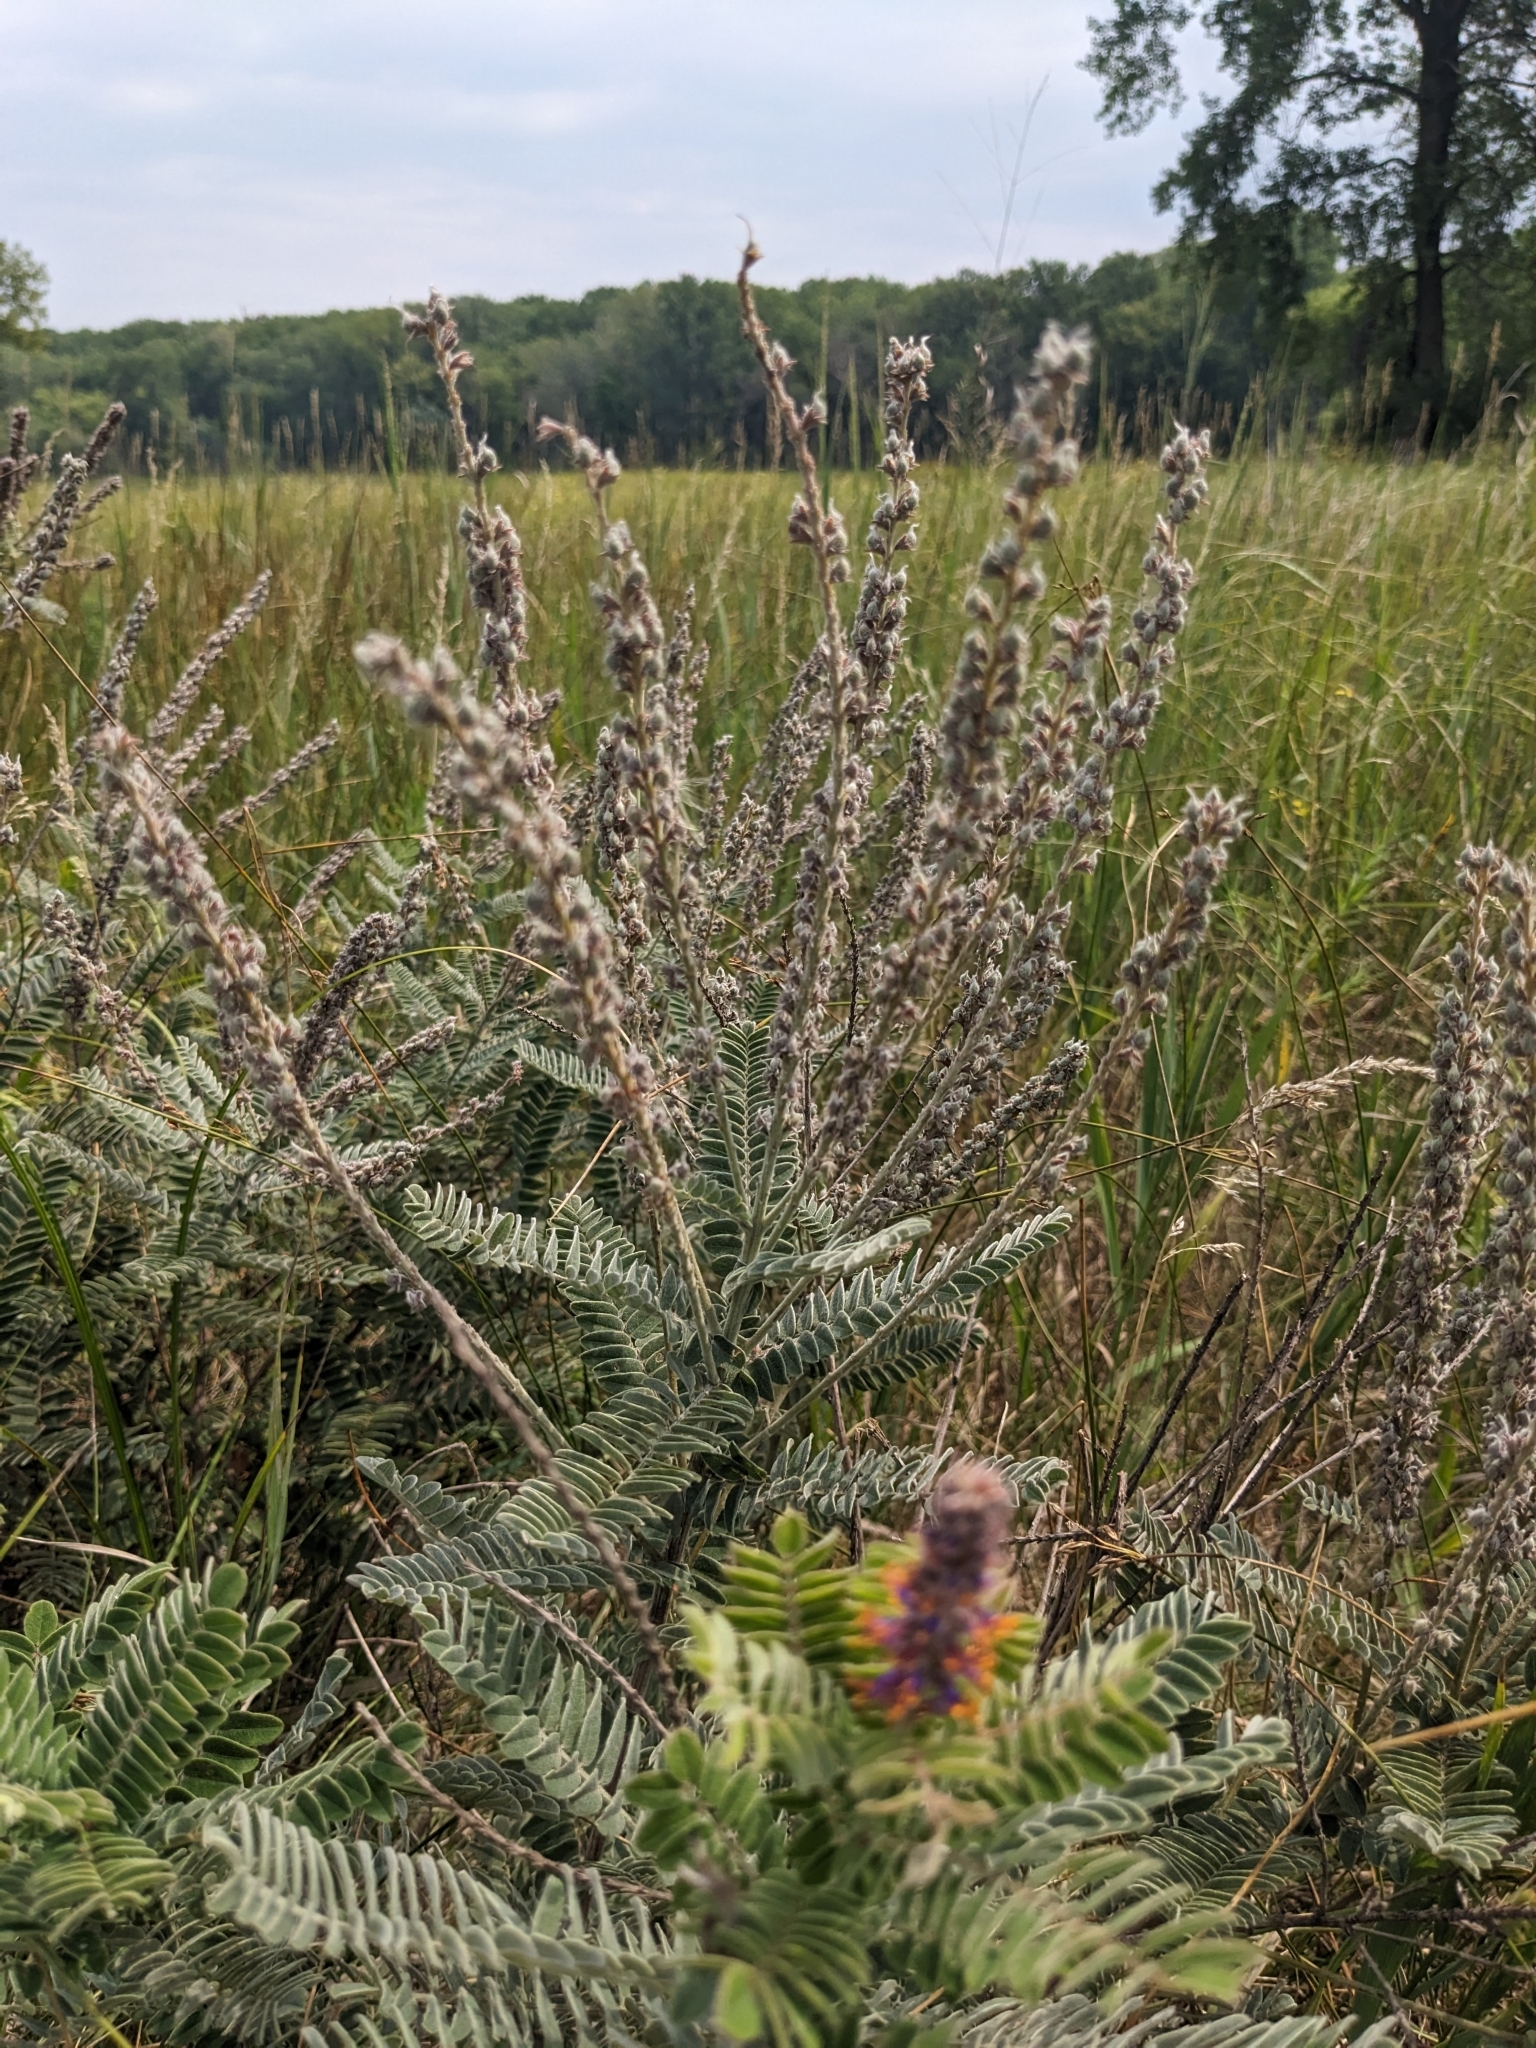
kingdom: Plantae
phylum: Tracheophyta
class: Magnoliopsida
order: Fabales
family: Fabaceae
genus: Amorpha
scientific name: Amorpha canescens
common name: Leadplant
